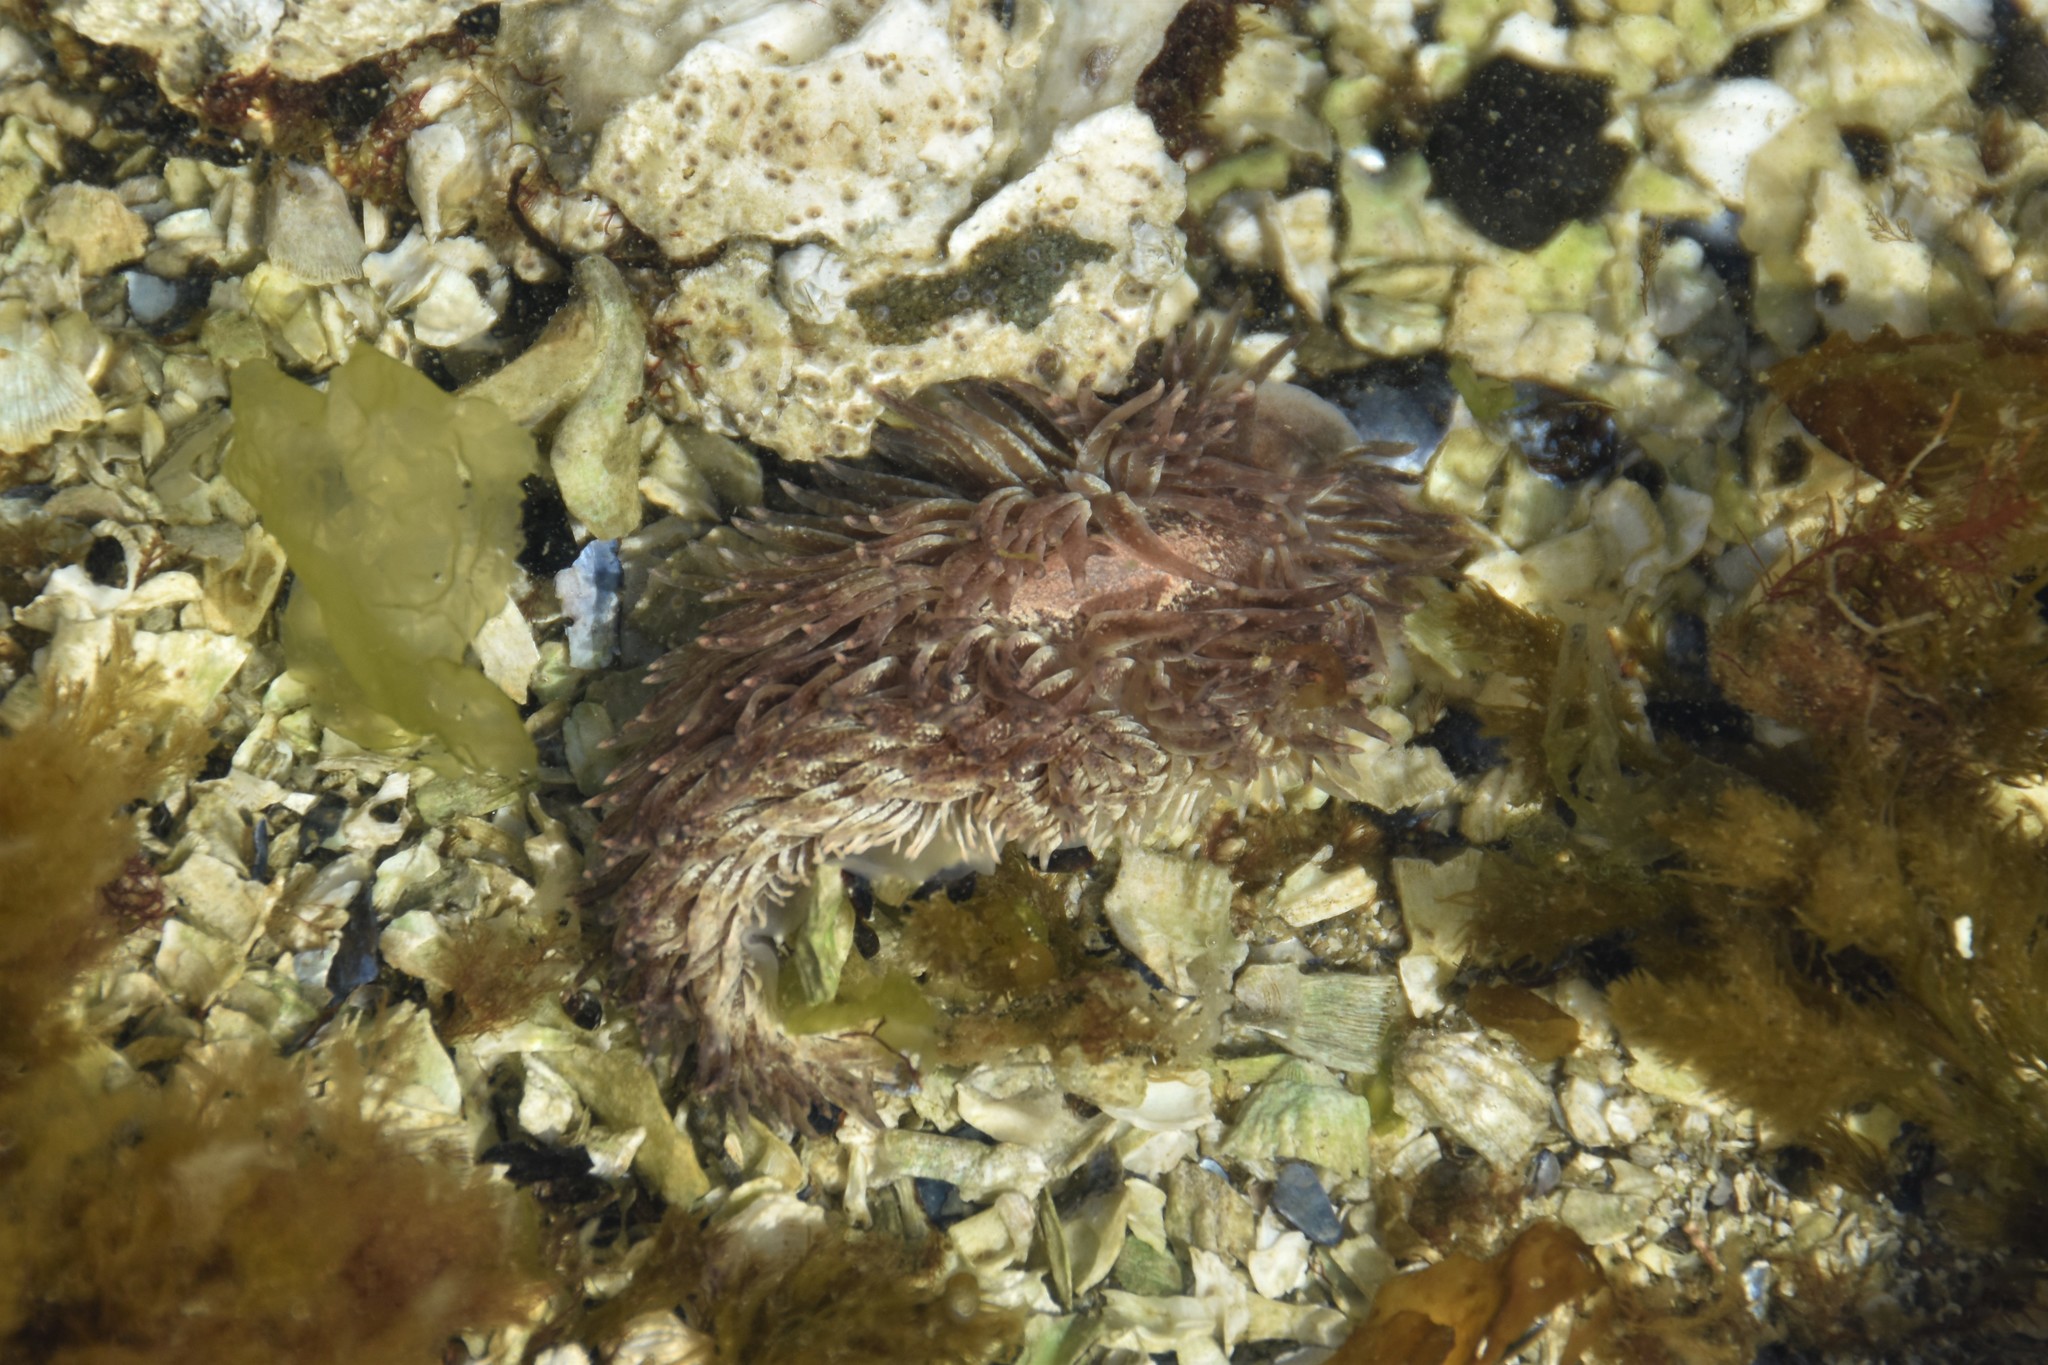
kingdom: Animalia
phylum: Mollusca
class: Gastropoda
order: Nudibranchia
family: Aeolidiidae
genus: Aeolidia
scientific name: Aeolidia papillosa
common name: Common grey sea slug
